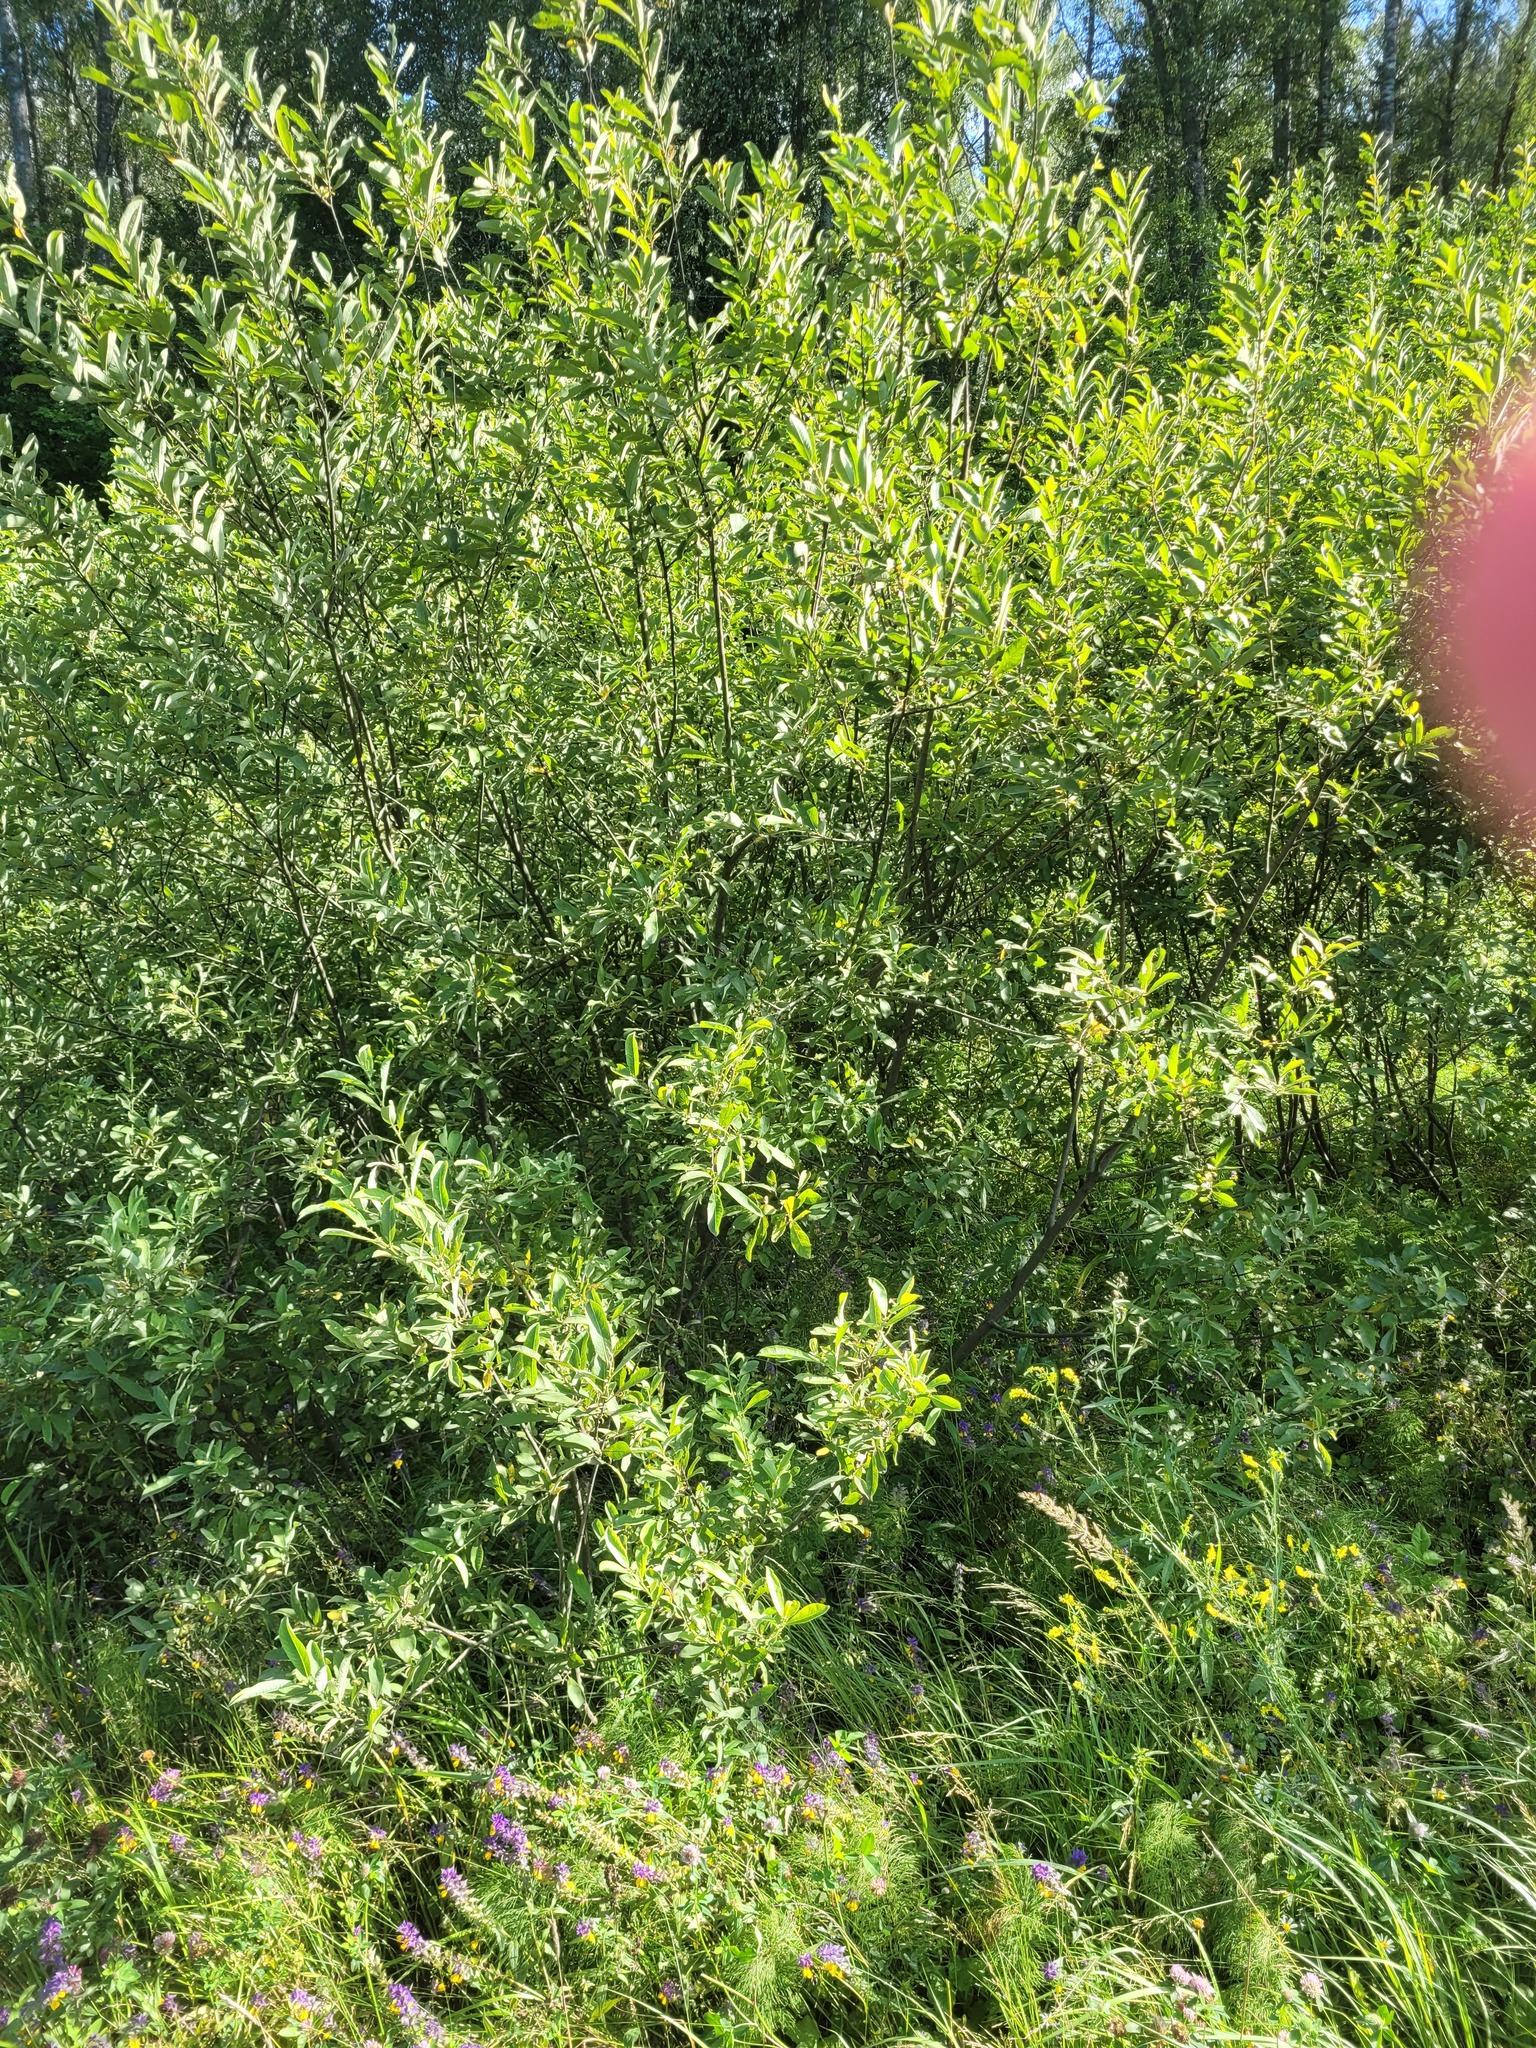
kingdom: Plantae
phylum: Tracheophyta
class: Magnoliopsida
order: Malpighiales
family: Salicaceae
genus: Salix
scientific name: Salix cinerea
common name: Common sallow
